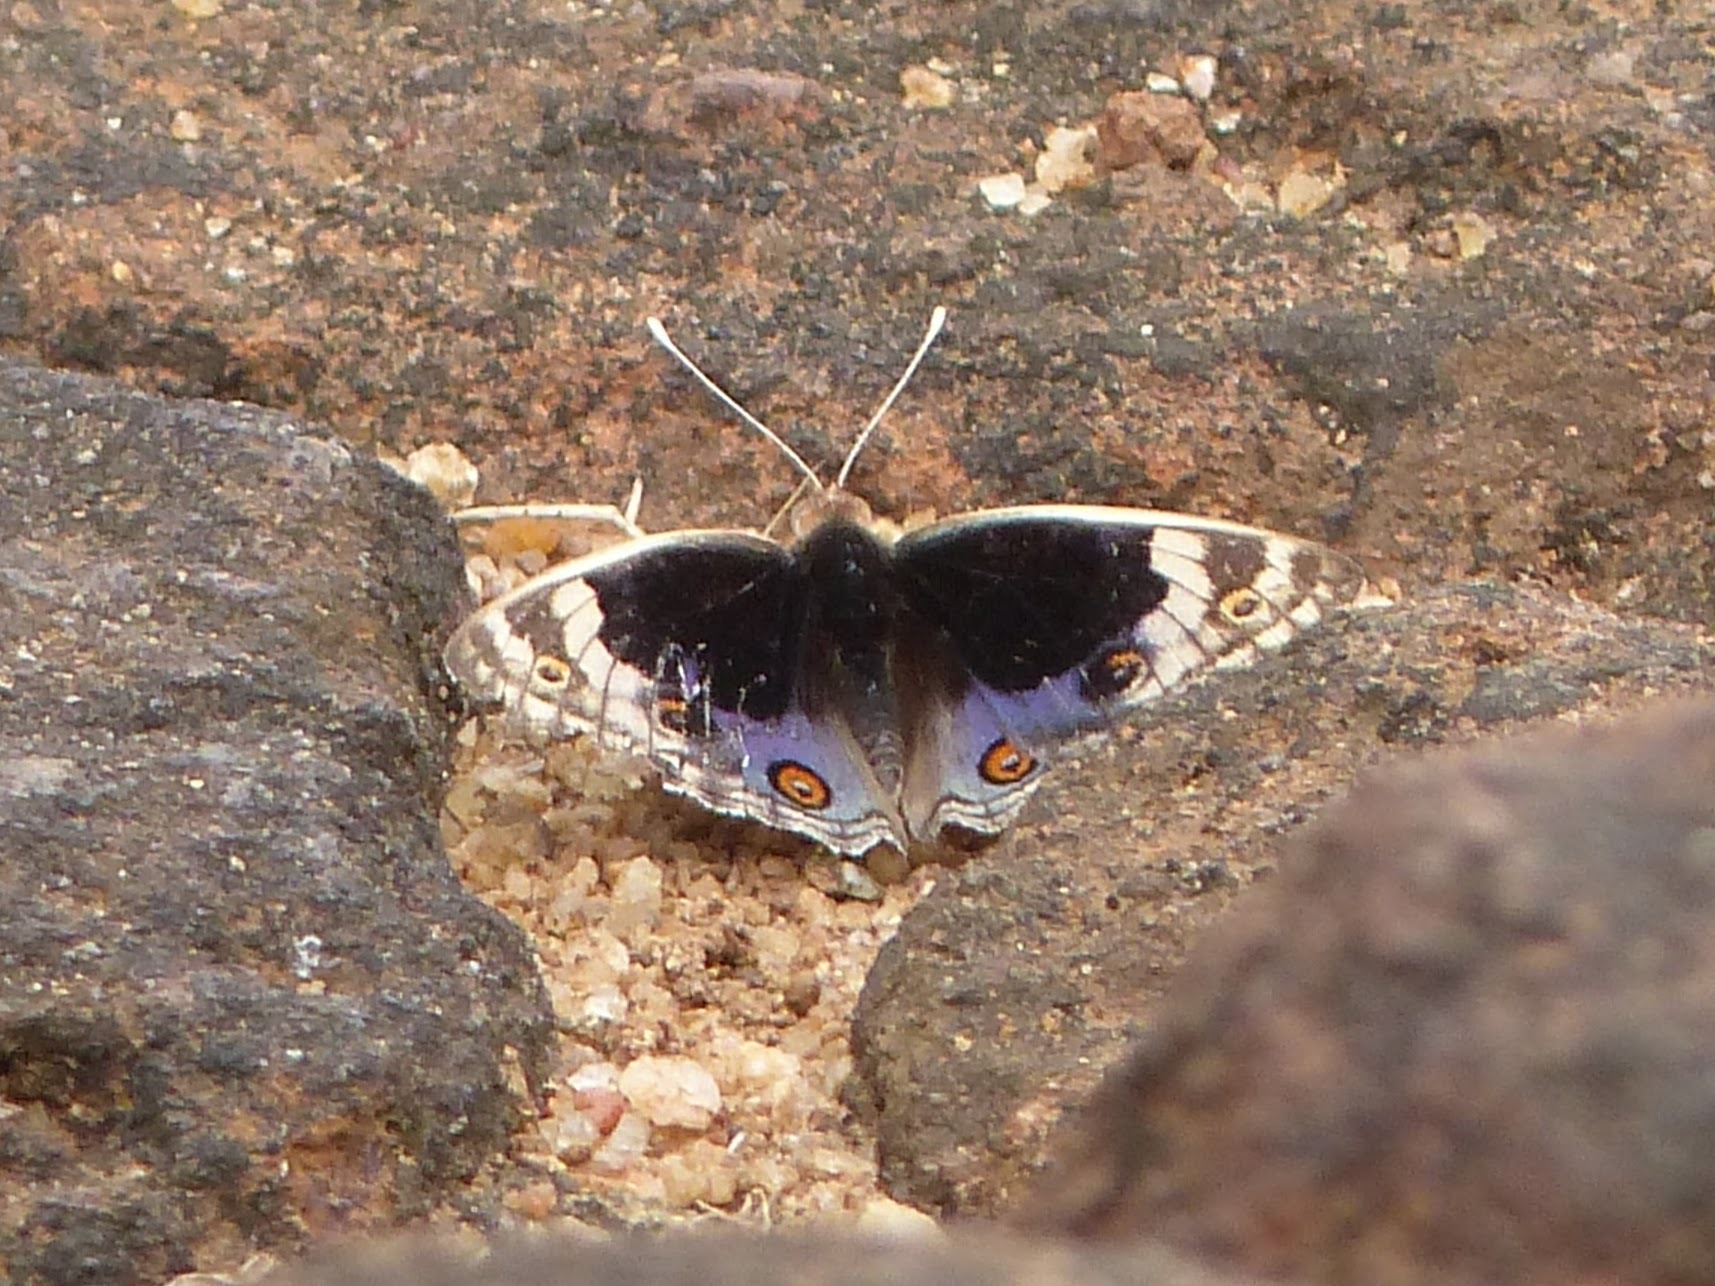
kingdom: Animalia
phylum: Arthropoda
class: Insecta
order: Lepidoptera
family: Nymphalidae
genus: Junonia
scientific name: Junonia orithya
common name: Blue pansy
